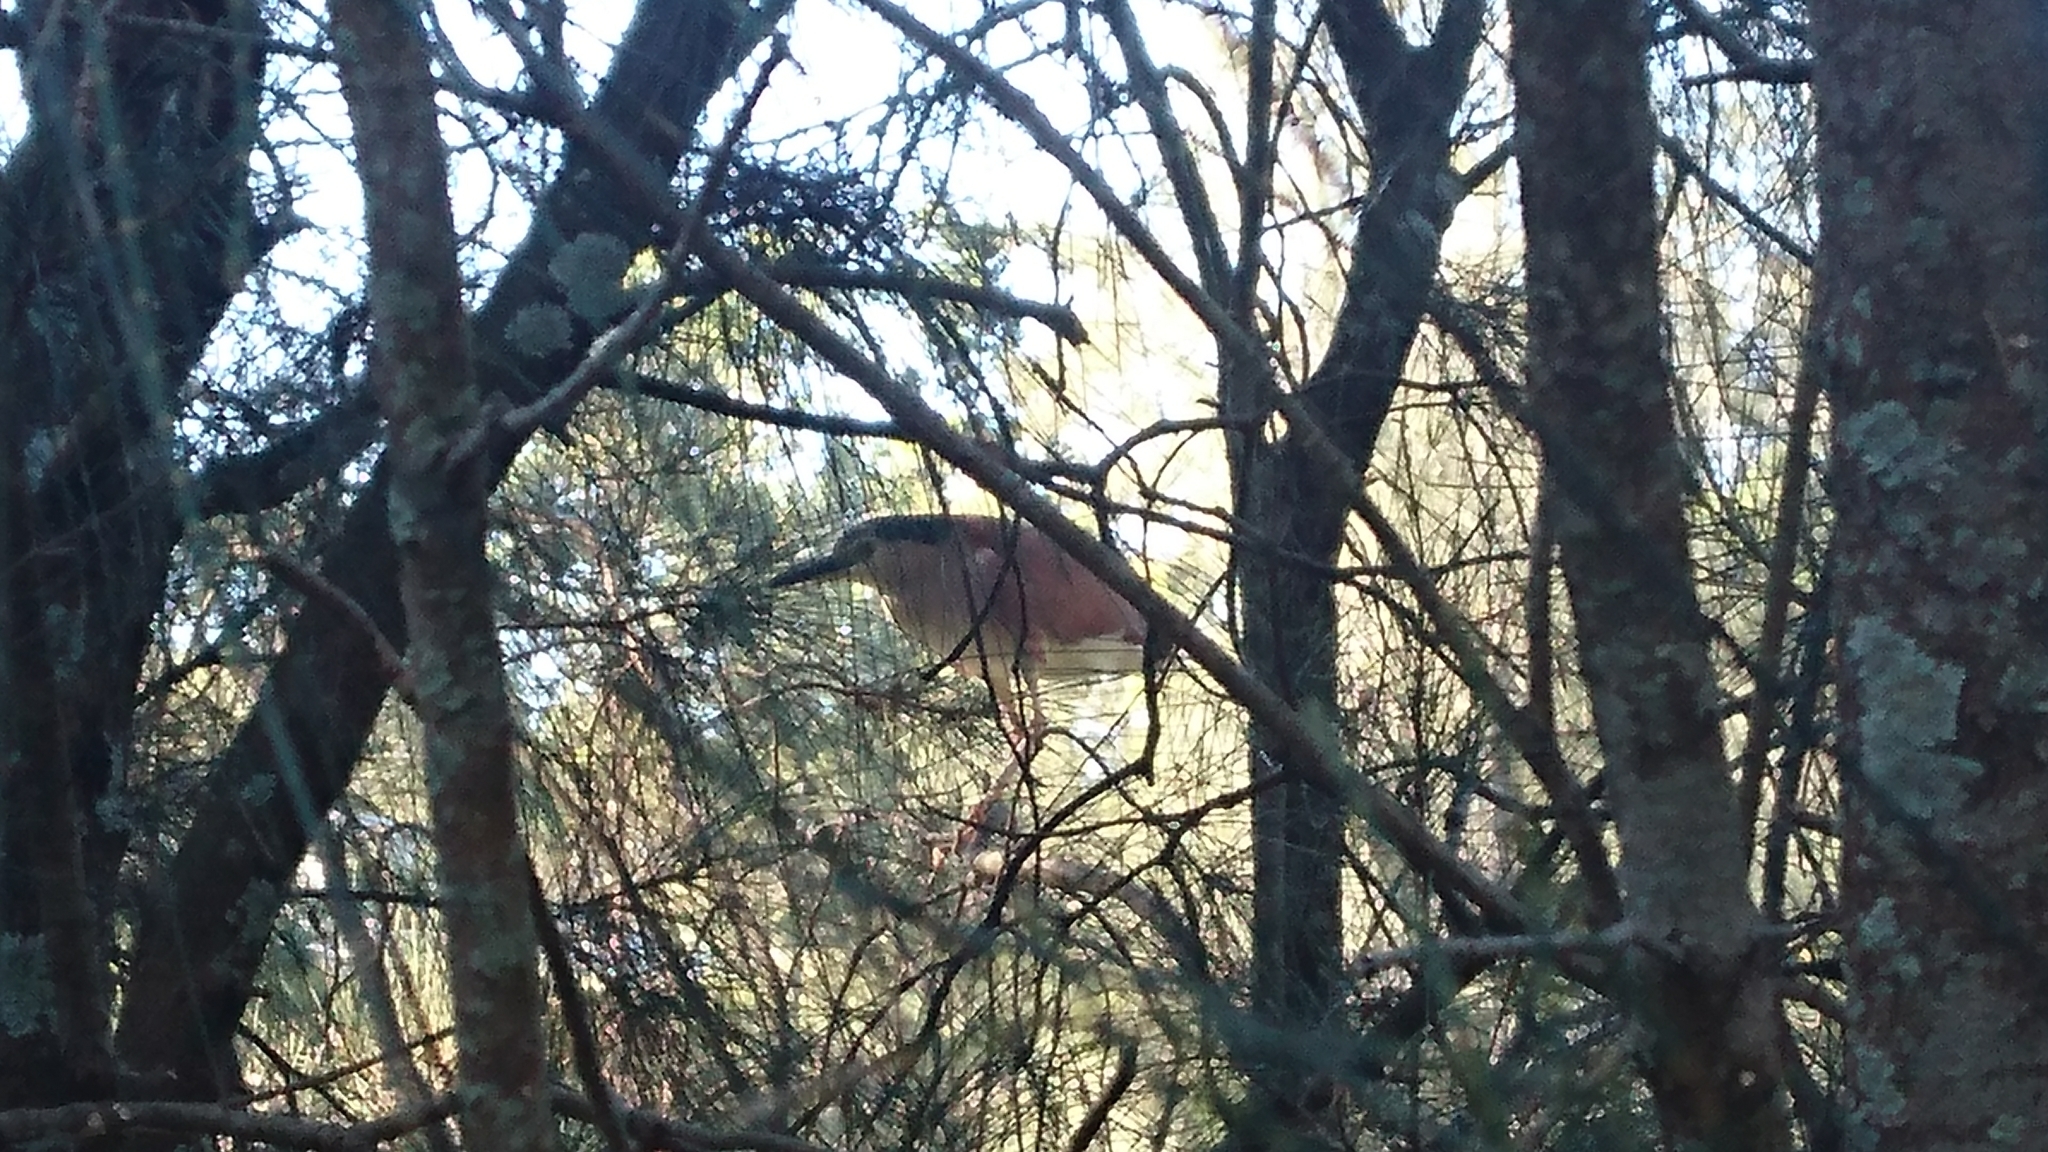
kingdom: Animalia
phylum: Chordata
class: Aves
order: Pelecaniformes
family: Ardeidae
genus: Nycticorax
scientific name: Nycticorax caledonicus
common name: Rufous night-heron
